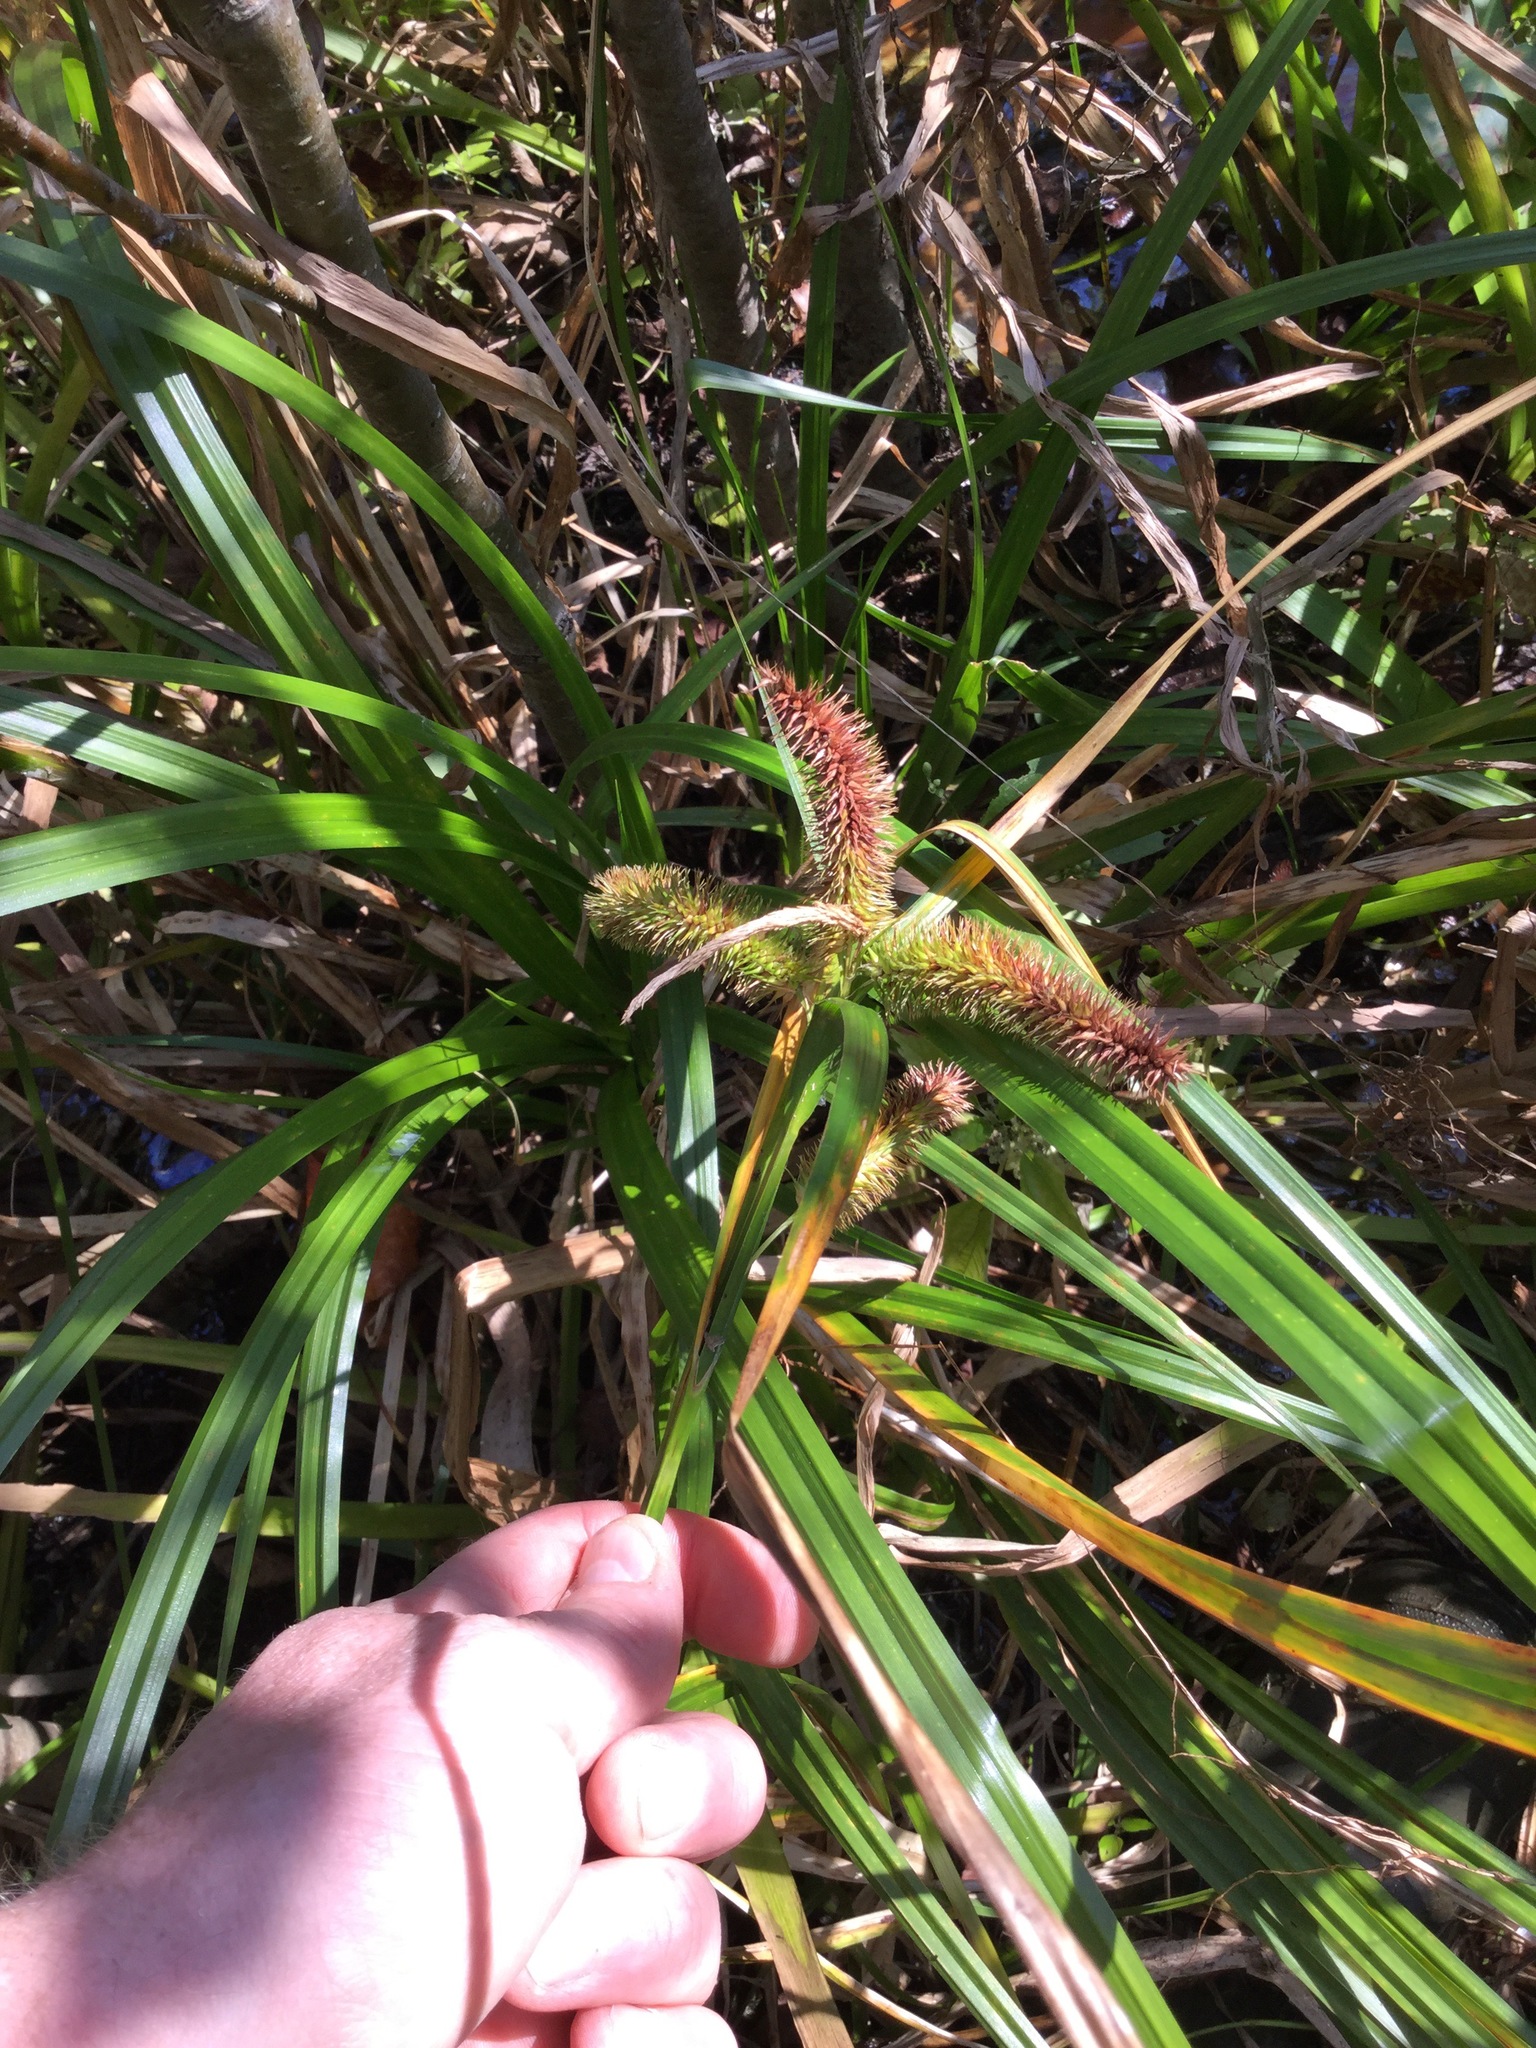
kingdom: Plantae
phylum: Tracheophyta
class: Liliopsida
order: Poales
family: Cyperaceae
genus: Carex
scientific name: Carex comosa
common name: Bristly sedge
